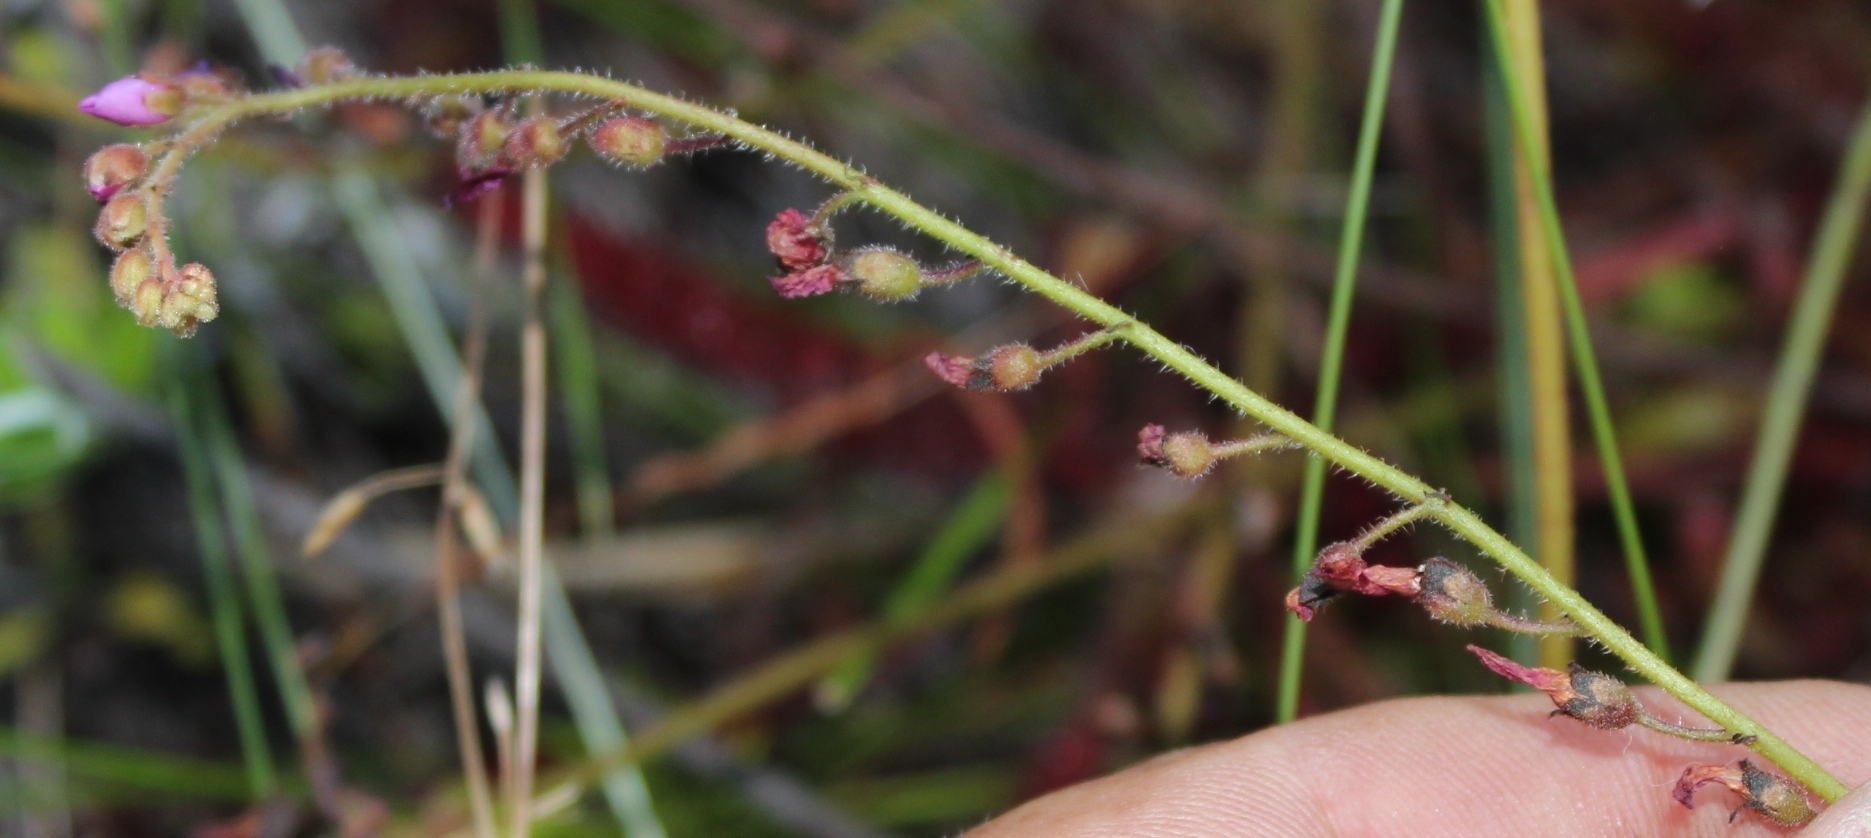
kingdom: Plantae
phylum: Tracheophyta
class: Magnoliopsida
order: Caryophyllales
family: Droseraceae
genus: Drosera
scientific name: Drosera capensis
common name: Cape sundew
